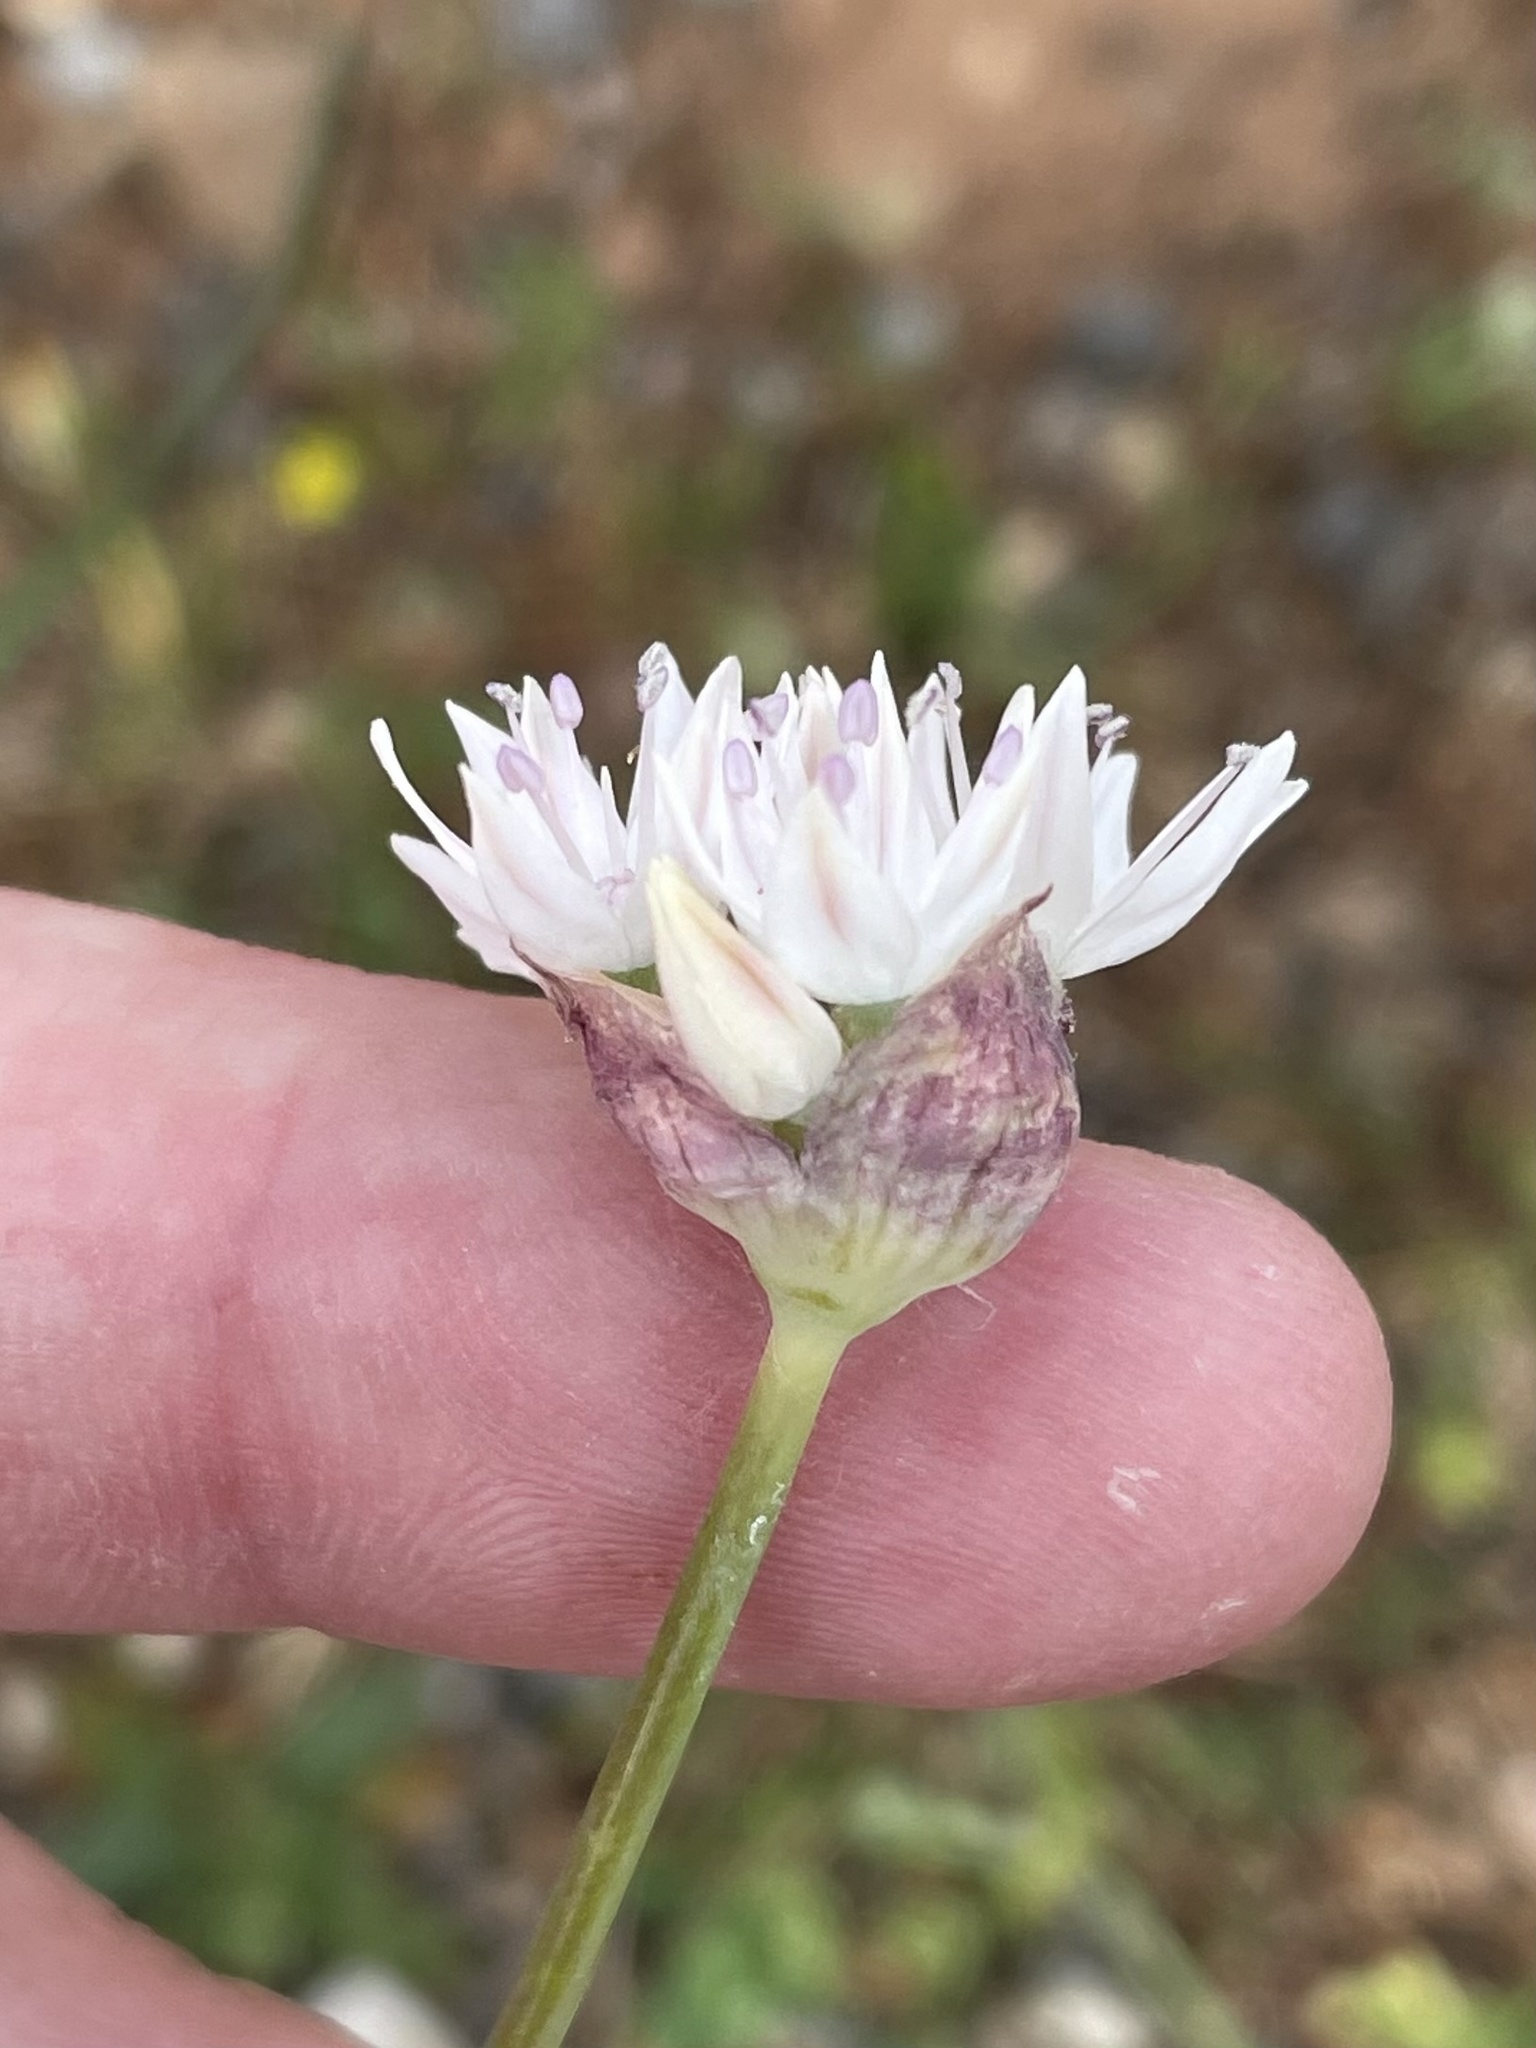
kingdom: Plantae
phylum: Tracheophyta
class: Liliopsida
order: Asparagales
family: Amaryllidaceae
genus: Allium
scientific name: Allium amplectens
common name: Narrow-leaved onion
